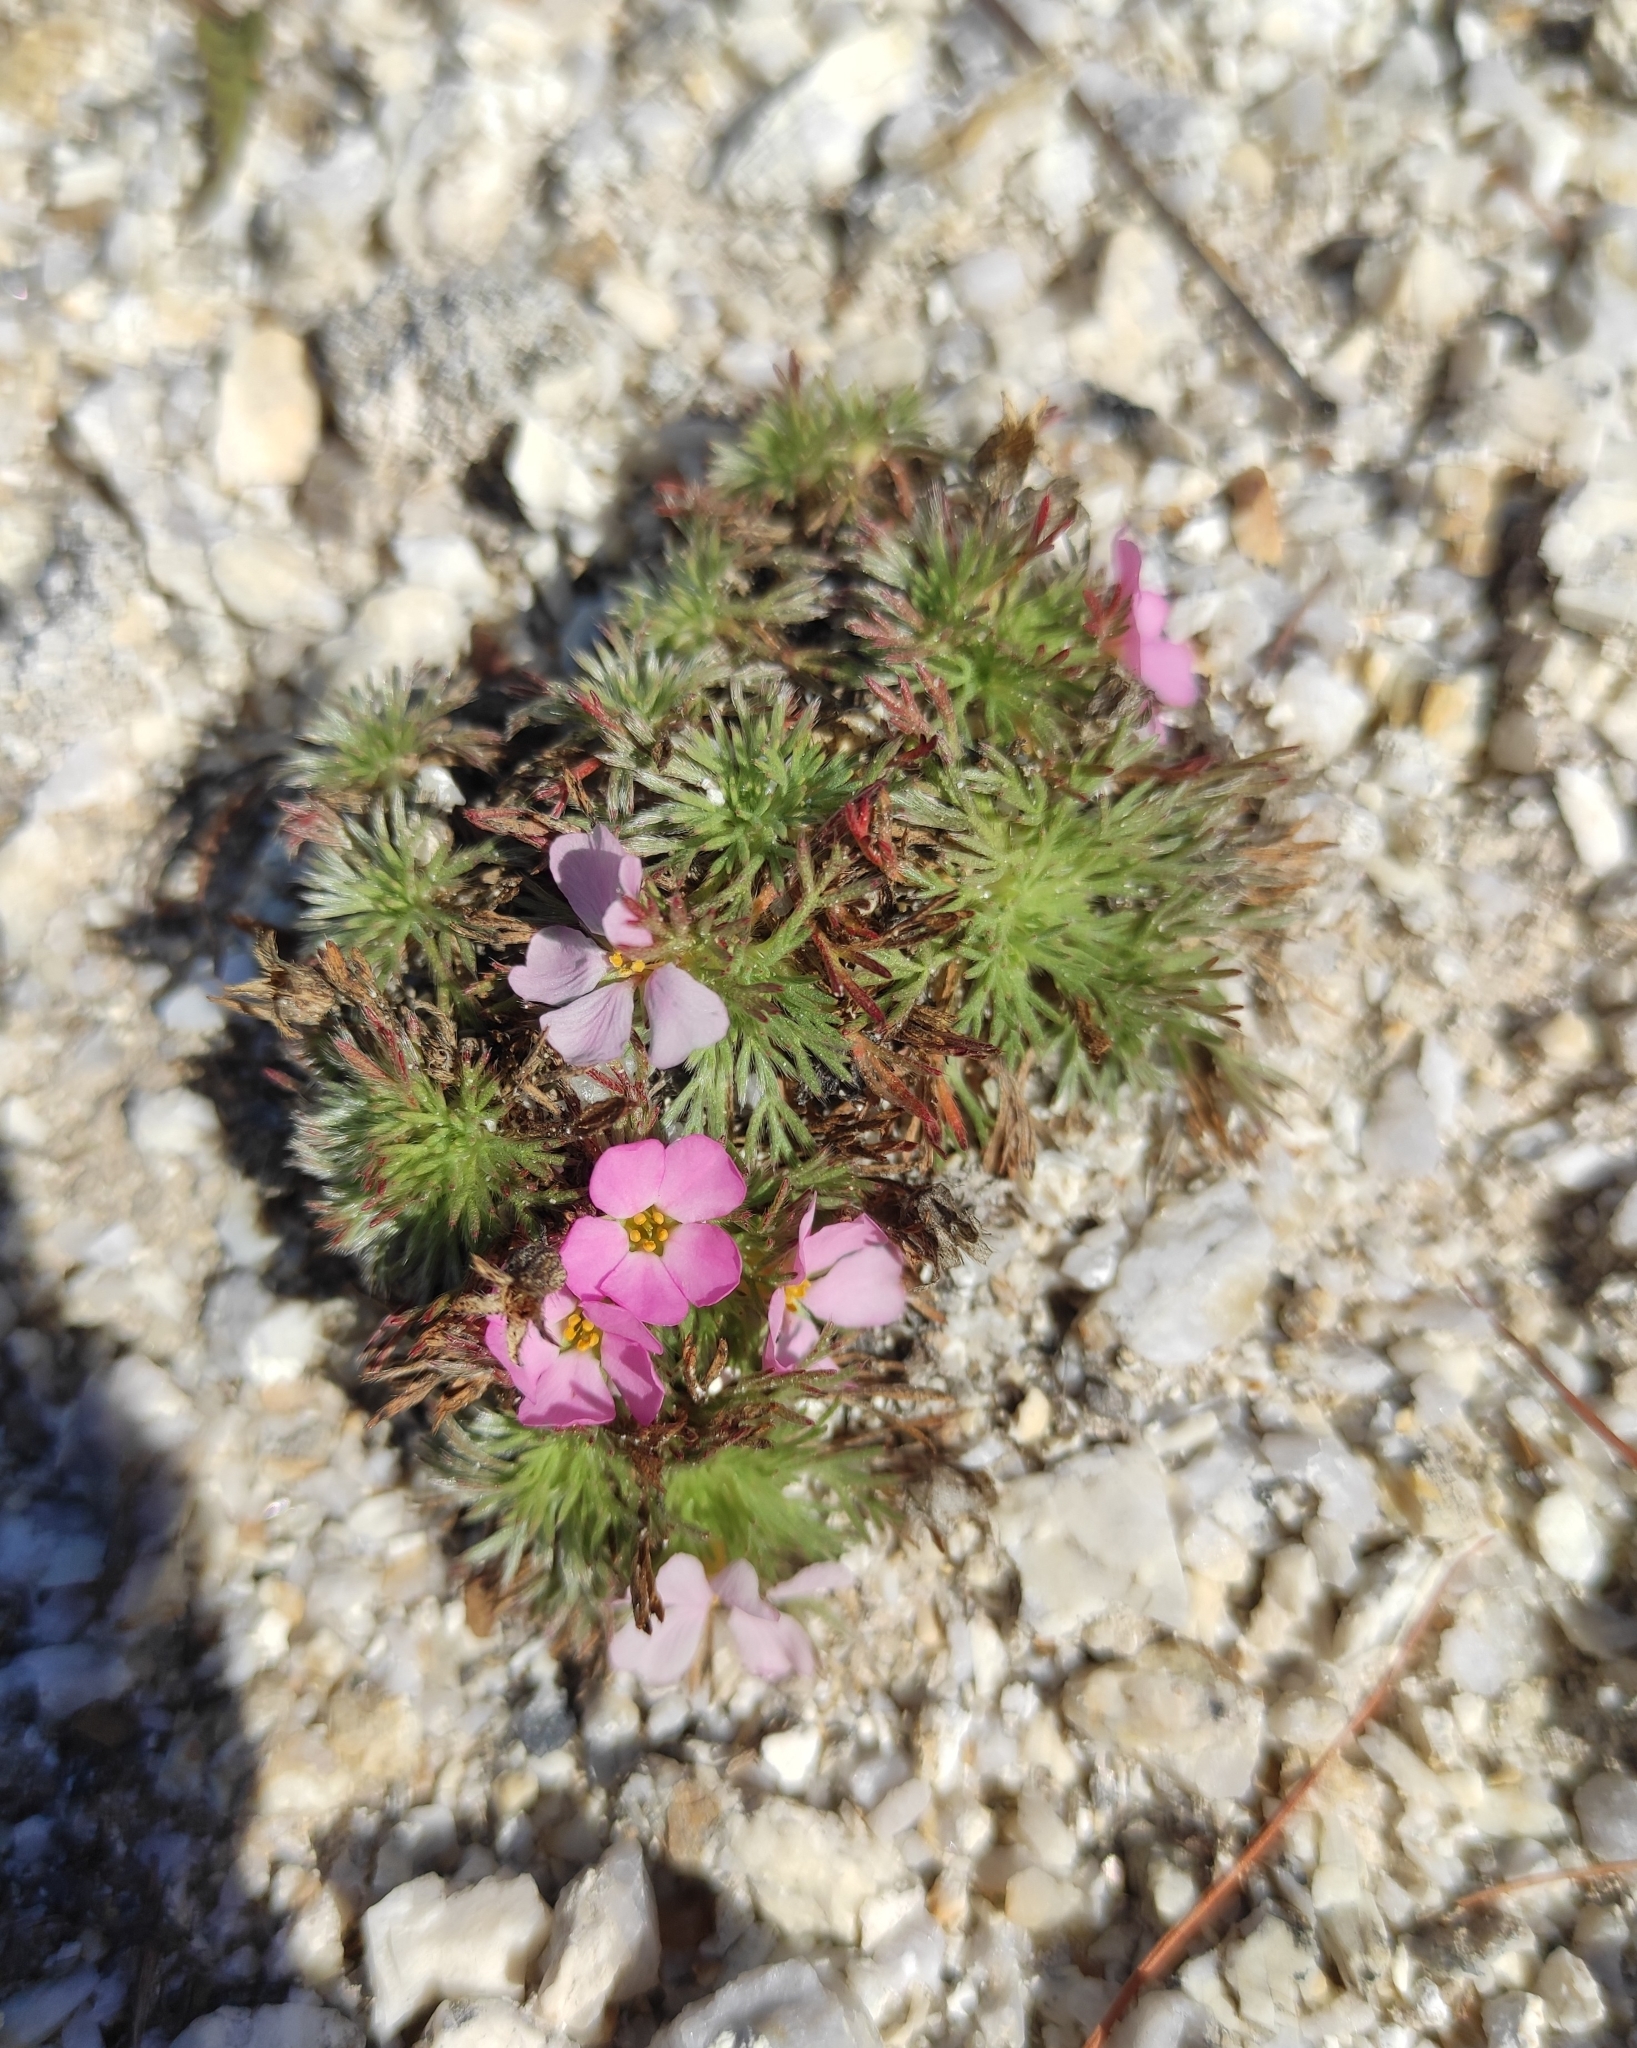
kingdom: Plantae
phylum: Tracheophyta
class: Magnoliopsida
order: Rosales
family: Rosaceae
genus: Chamaerhodos
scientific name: Chamaerhodos altaica
